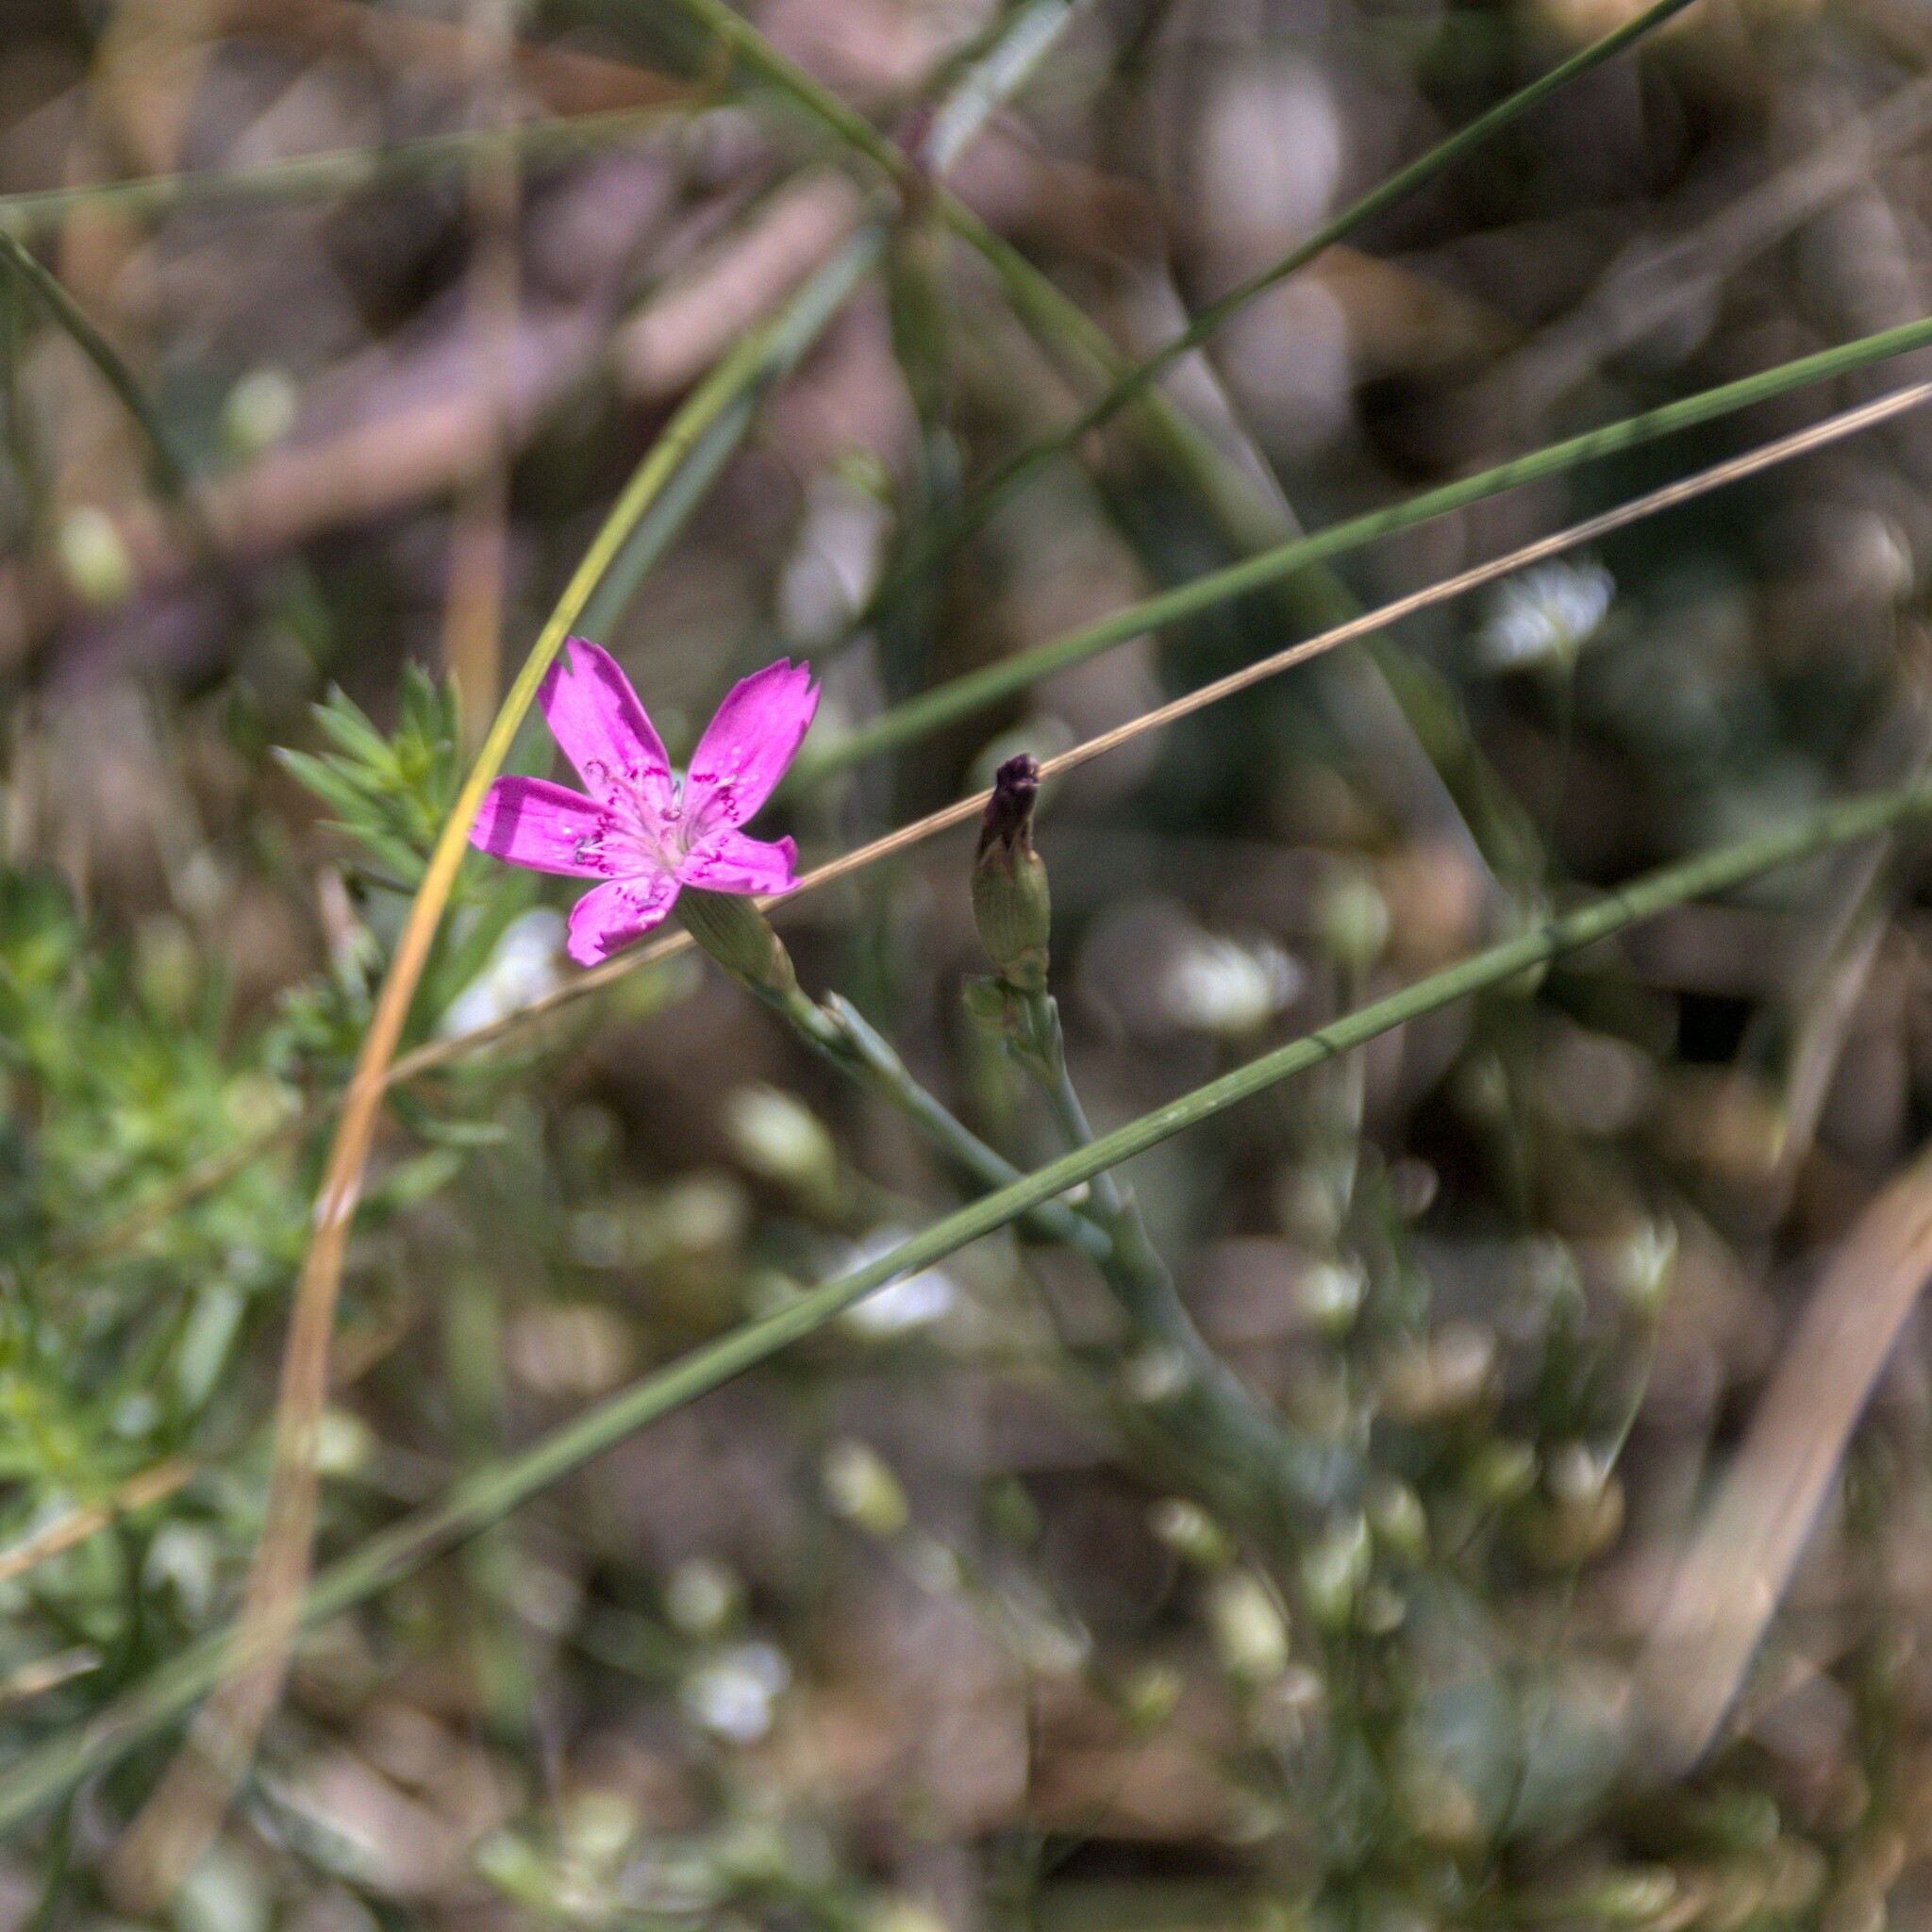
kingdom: Plantae
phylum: Tracheophyta
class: Magnoliopsida
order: Caryophyllales
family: Caryophyllaceae
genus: Dianthus
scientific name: Dianthus deltoides
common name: Maiden pink
